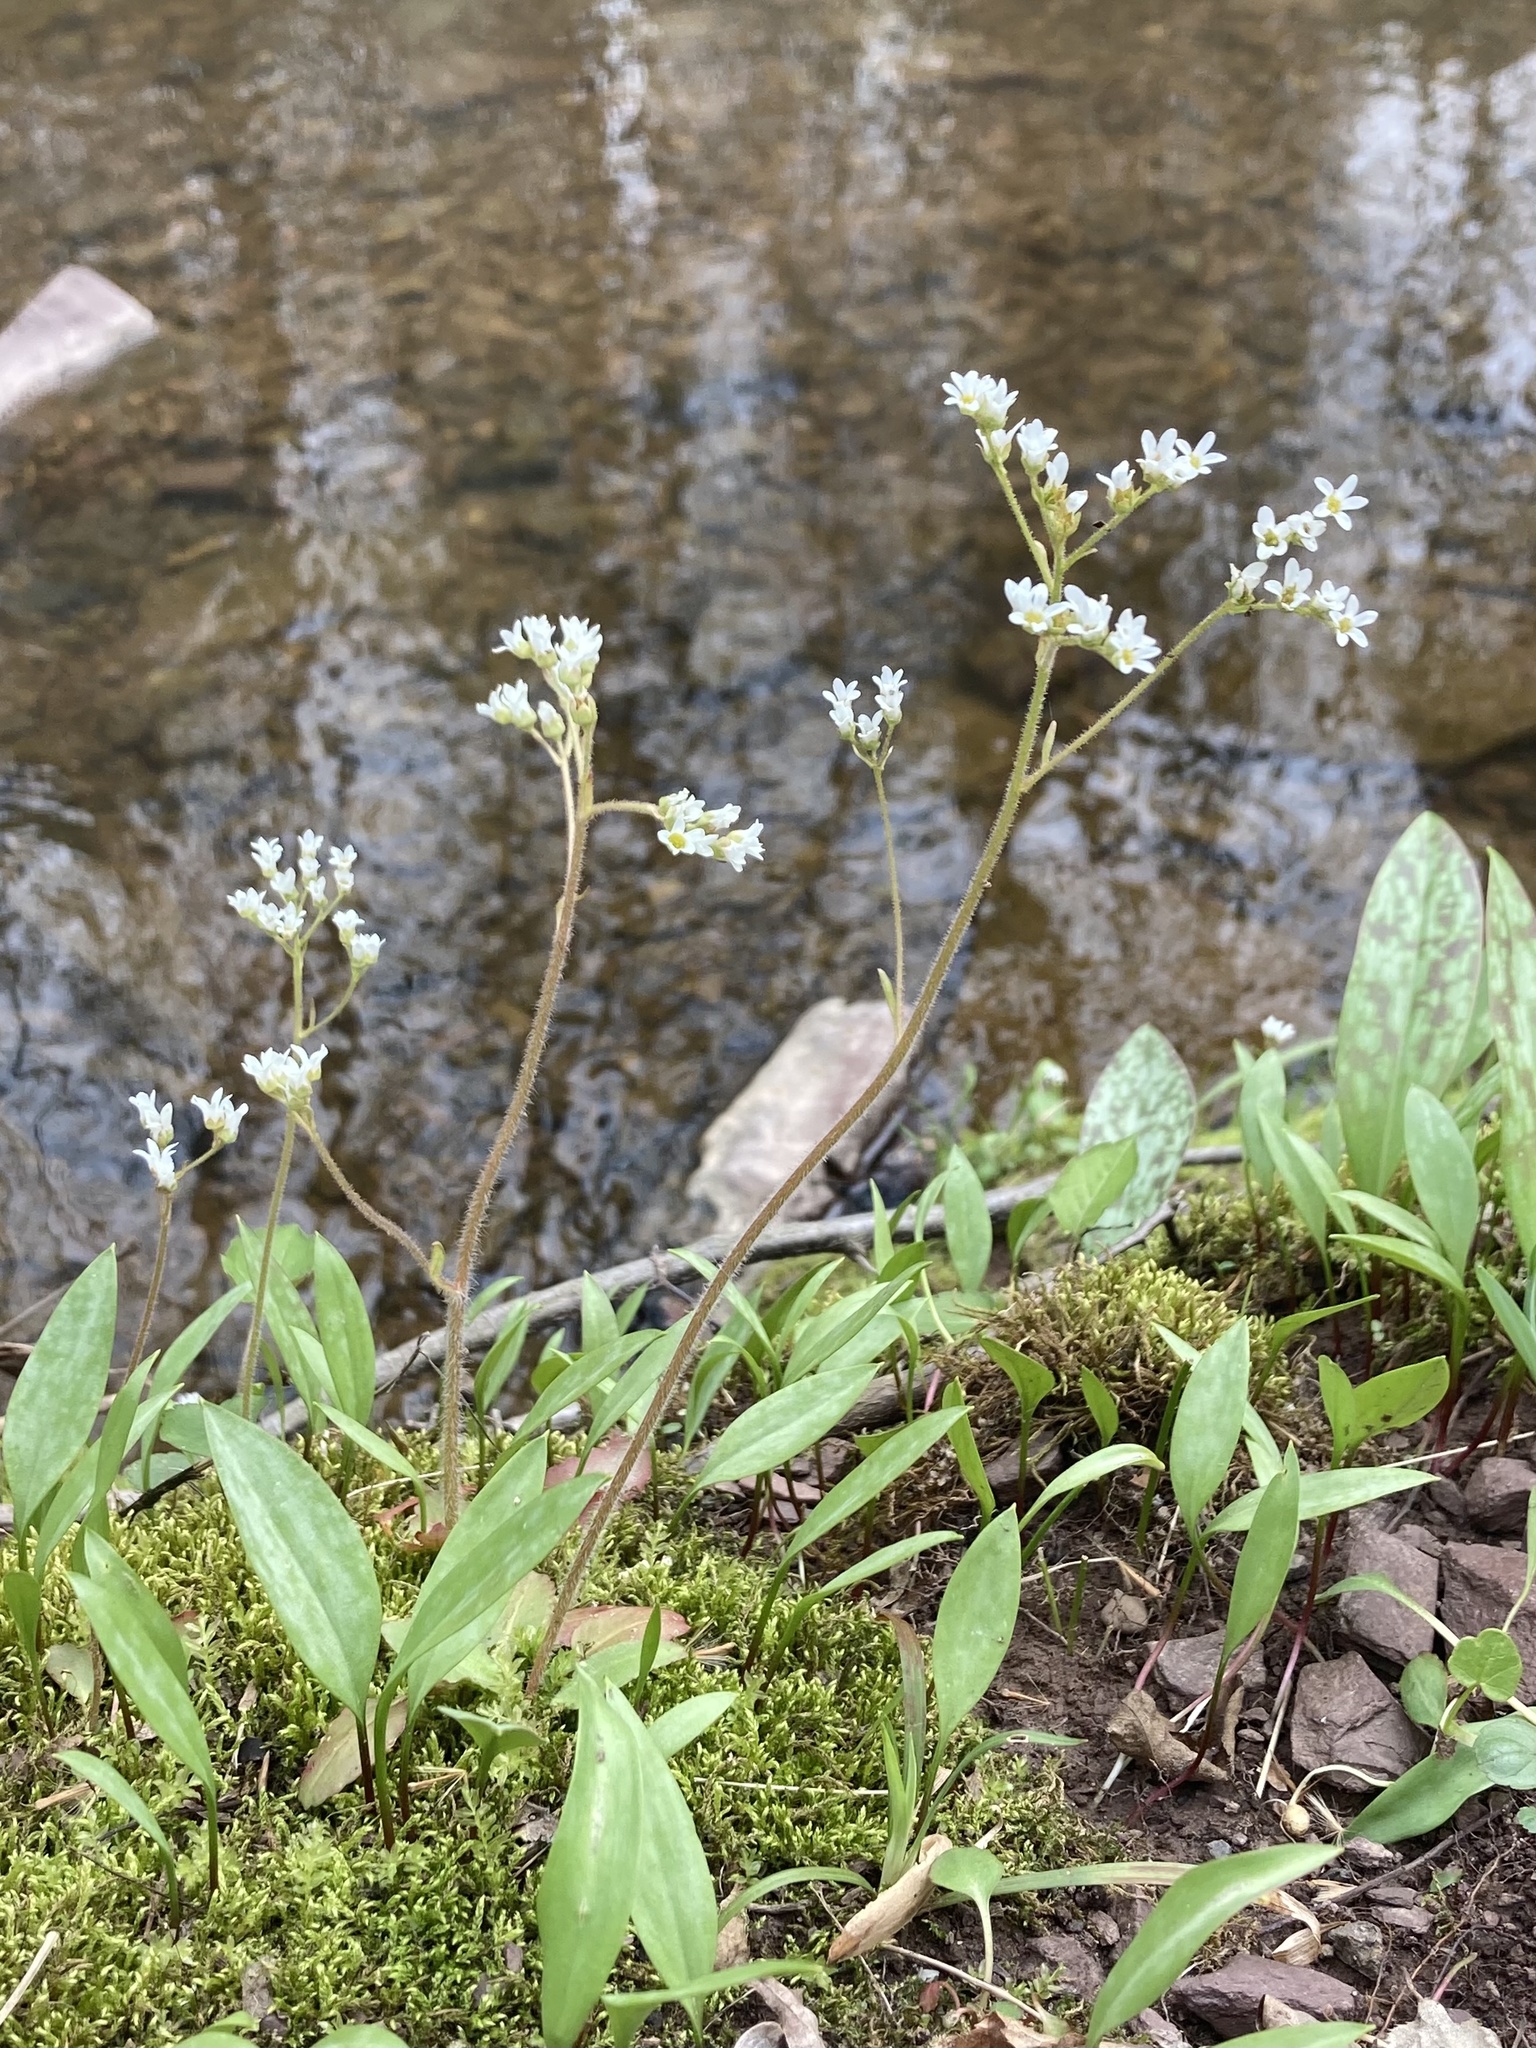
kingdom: Plantae
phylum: Tracheophyta
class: Magnoliopsida
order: Saxifragales
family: Saxifragaceae
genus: Micranthes
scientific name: Micranthes virginiensis
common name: Early saxifrage
